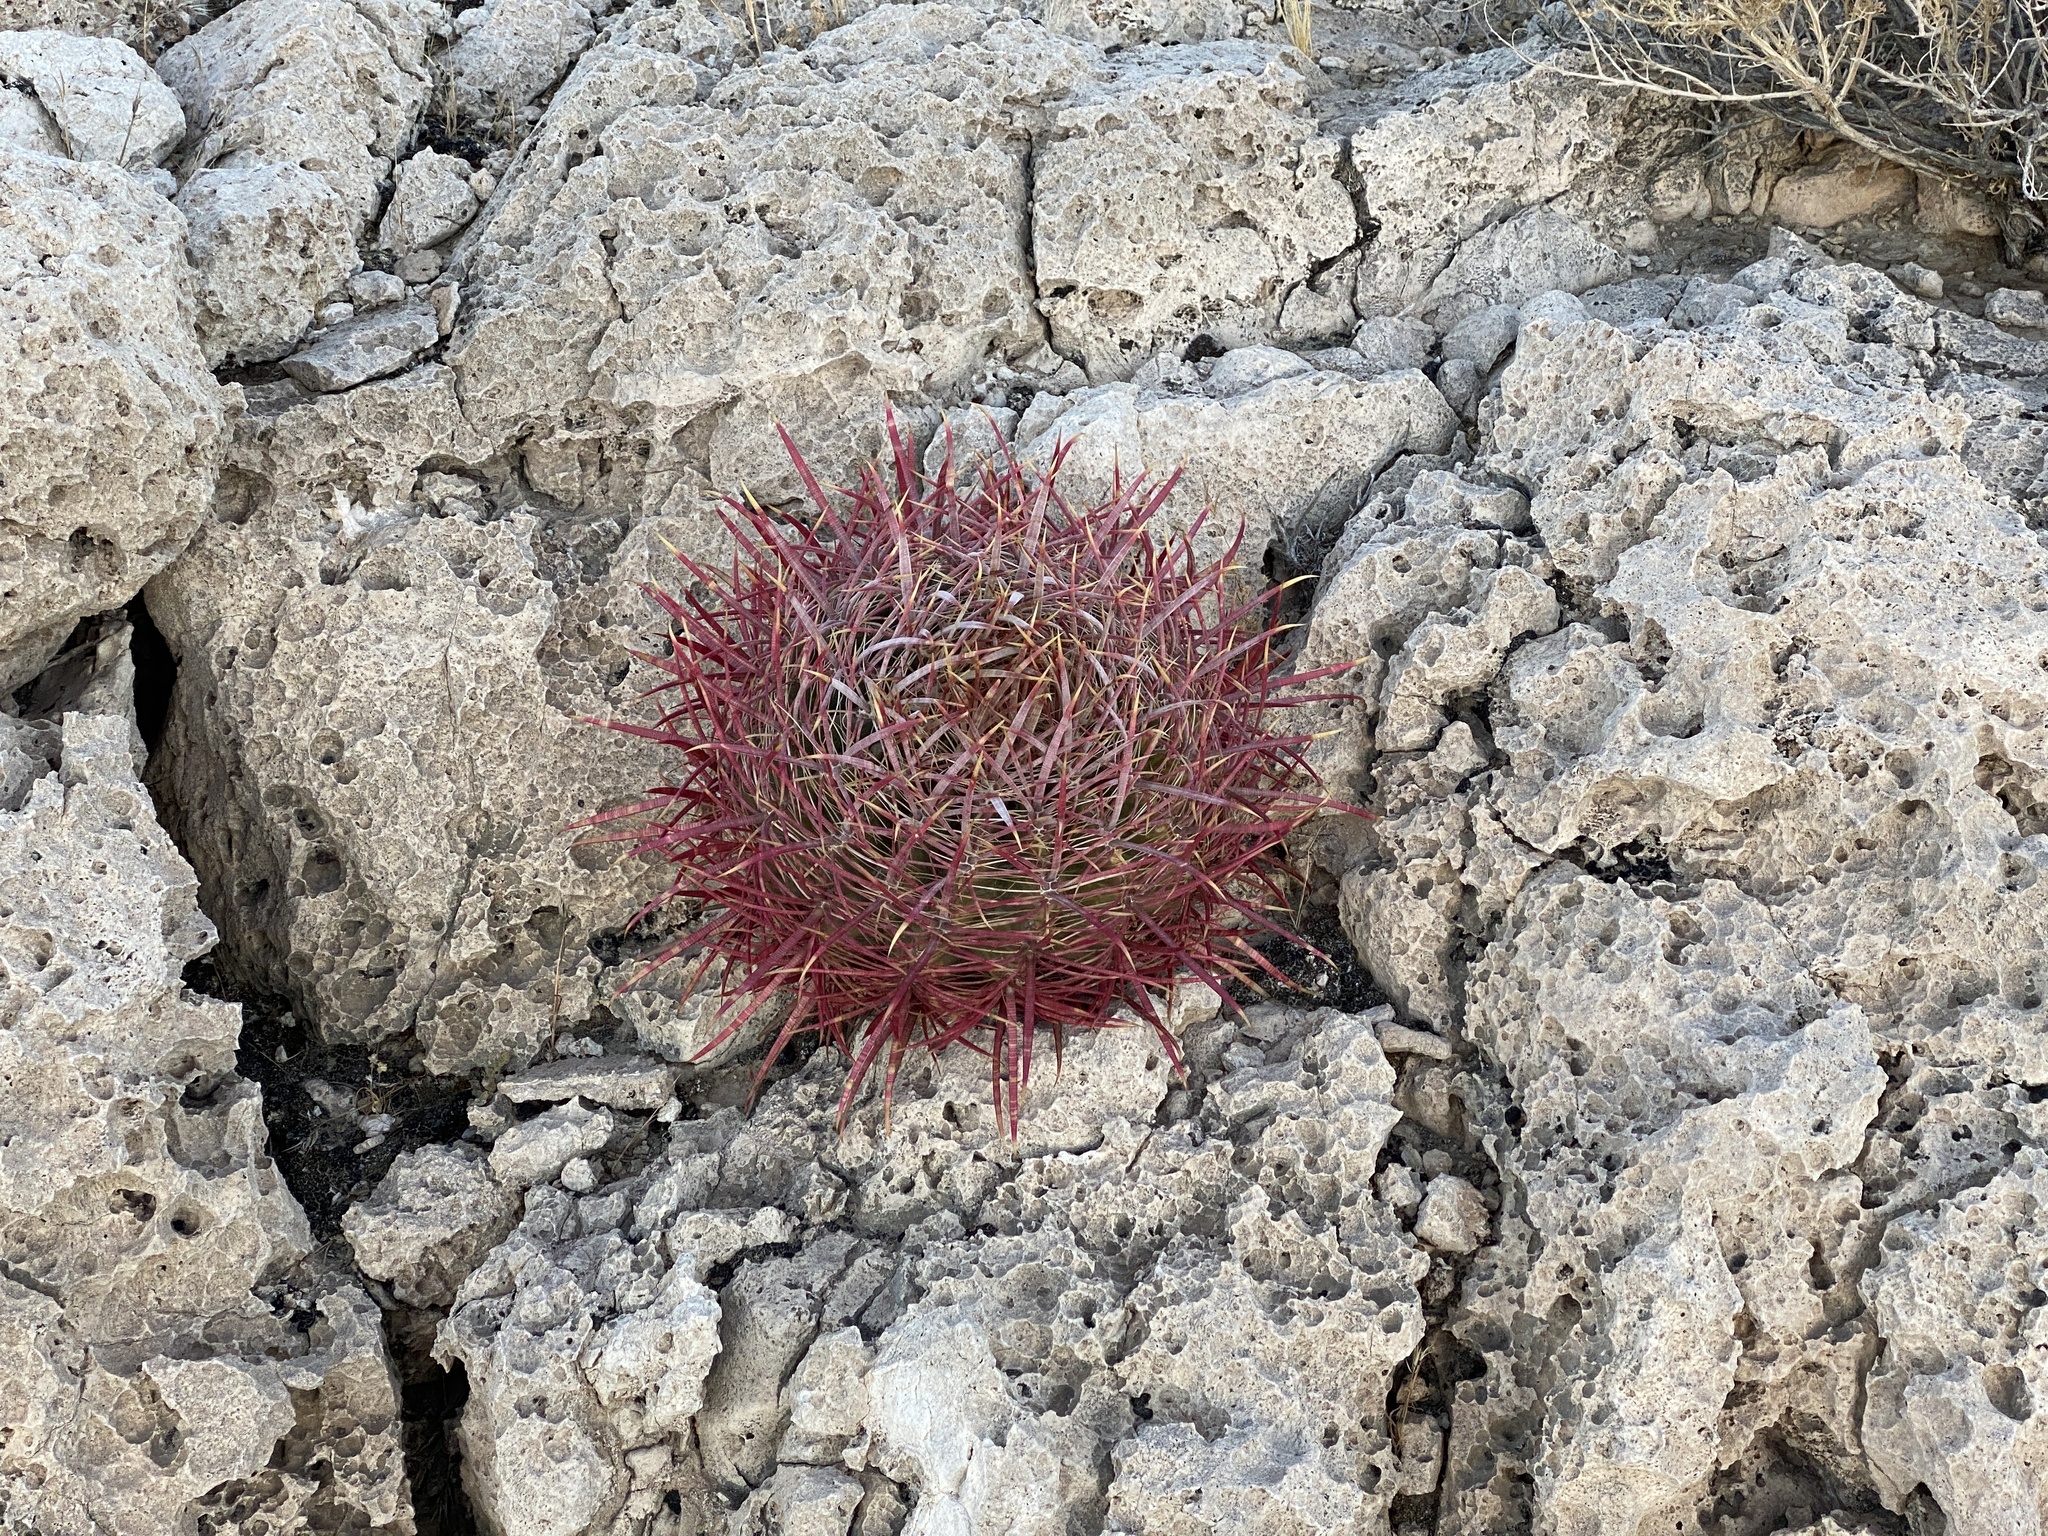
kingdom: Plantae
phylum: Tracheophyta
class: Magnoliopsida
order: Caryophyllales
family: Cactaceae
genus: Ferocactus
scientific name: Ferocactus cylindraceus
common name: California barrel cactus
